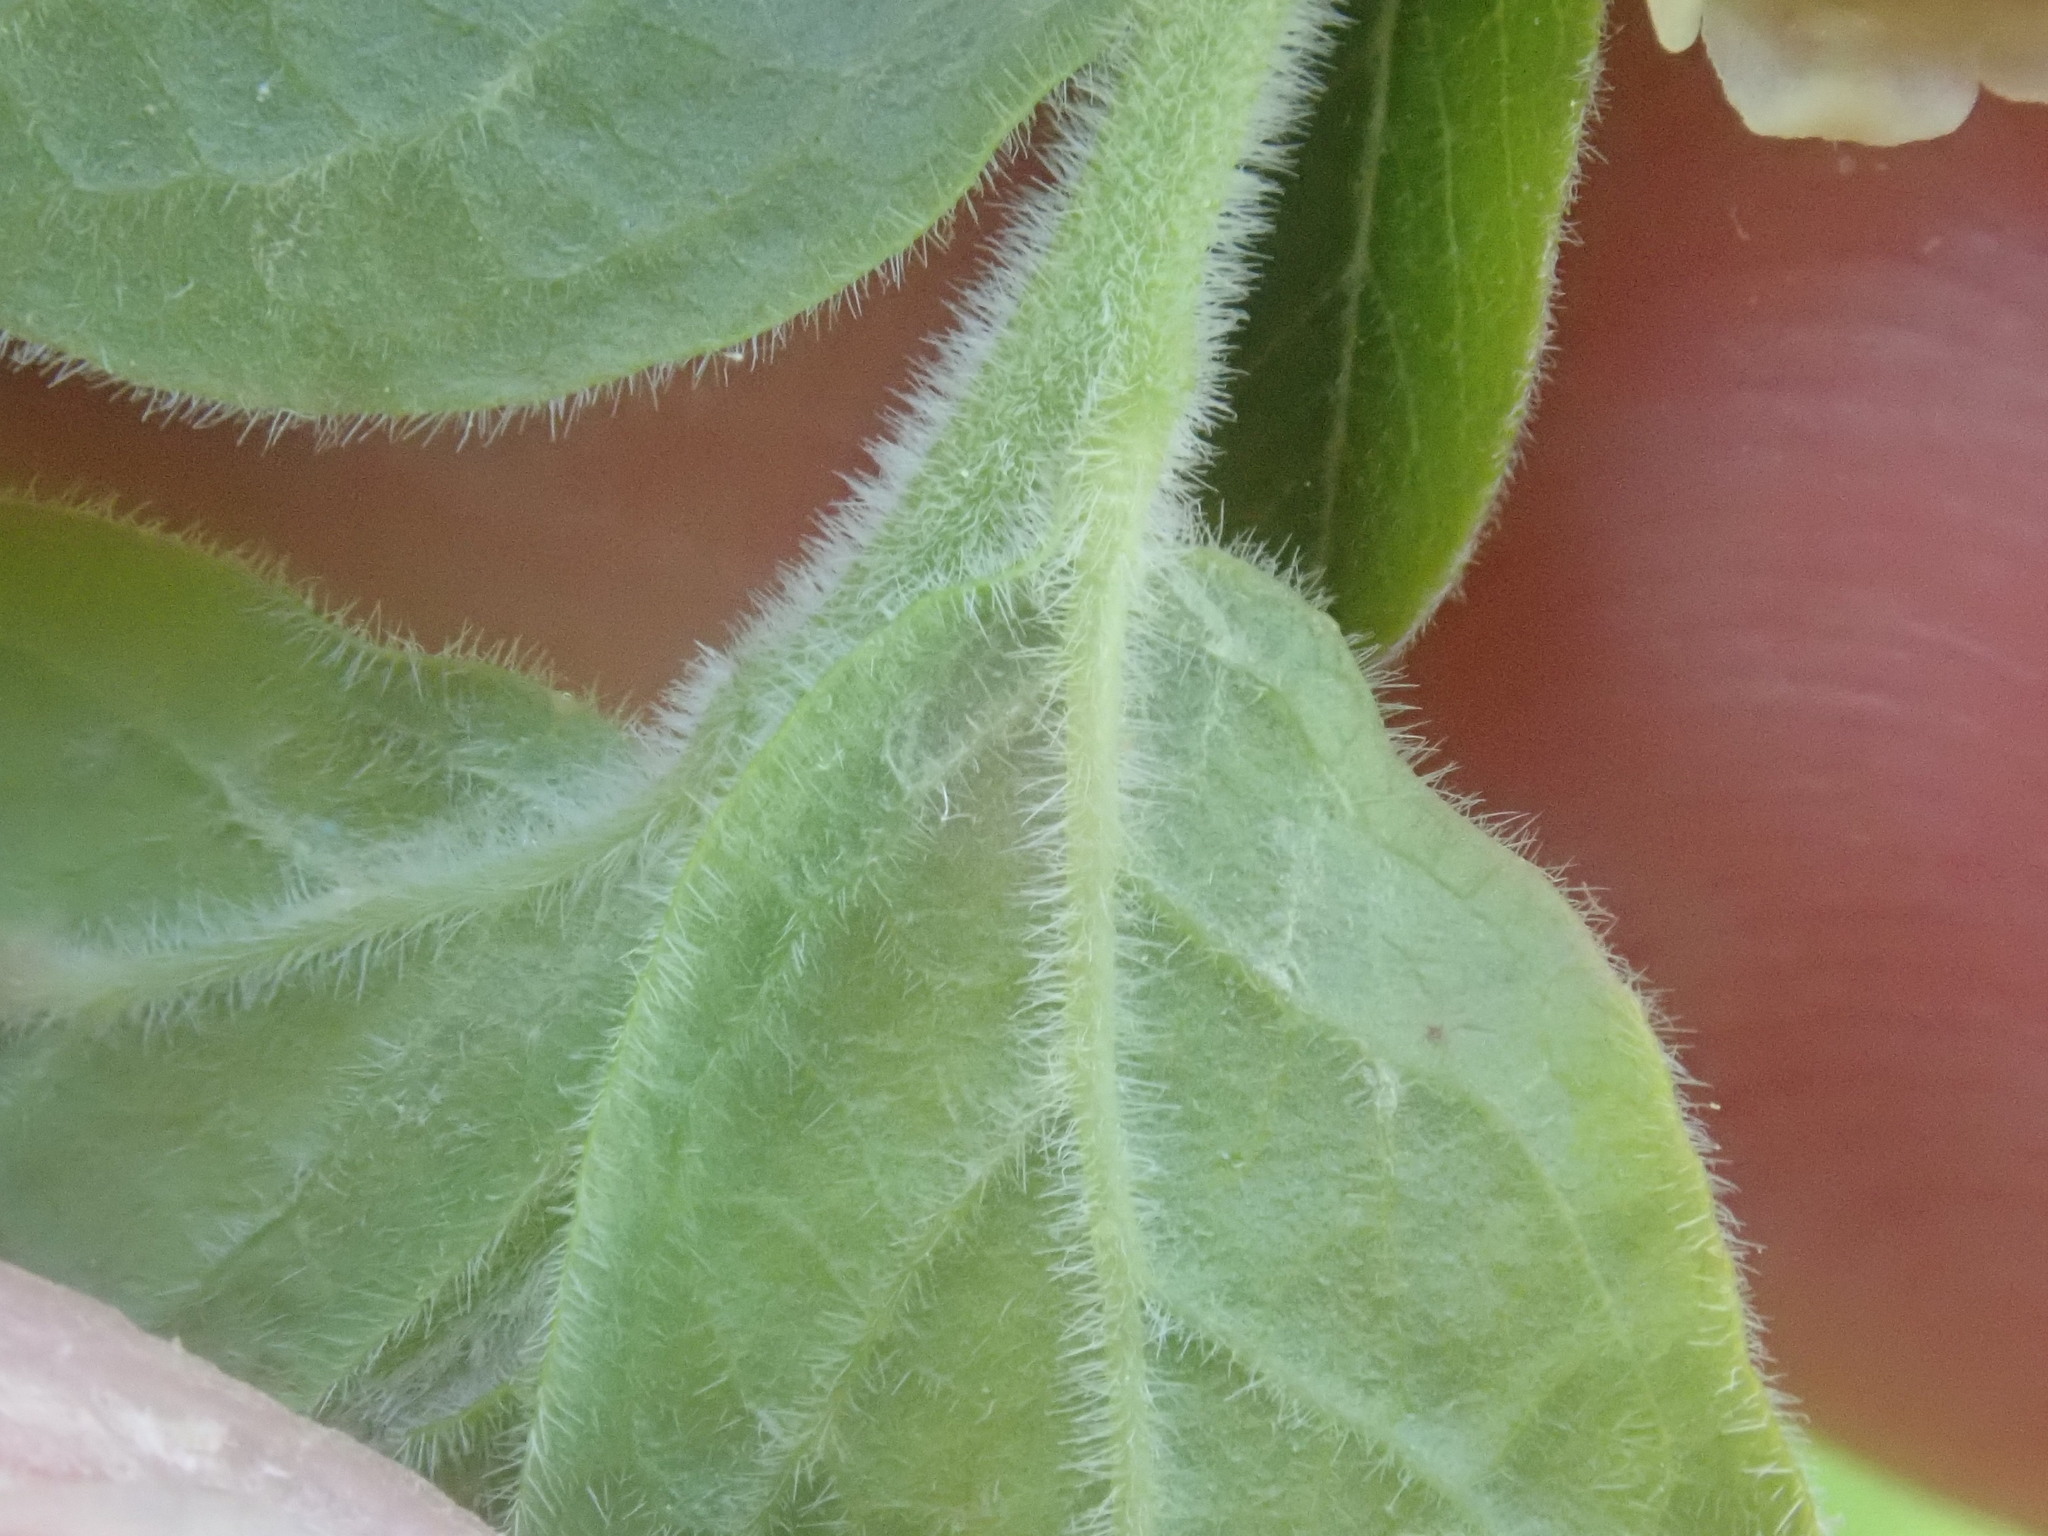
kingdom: Plantae
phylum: Tracheophyta
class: Magnoliopsida
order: Ericales
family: Ericaceae
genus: Vaccinium
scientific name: Vaccinium myrtilloides
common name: Canada blueberry
